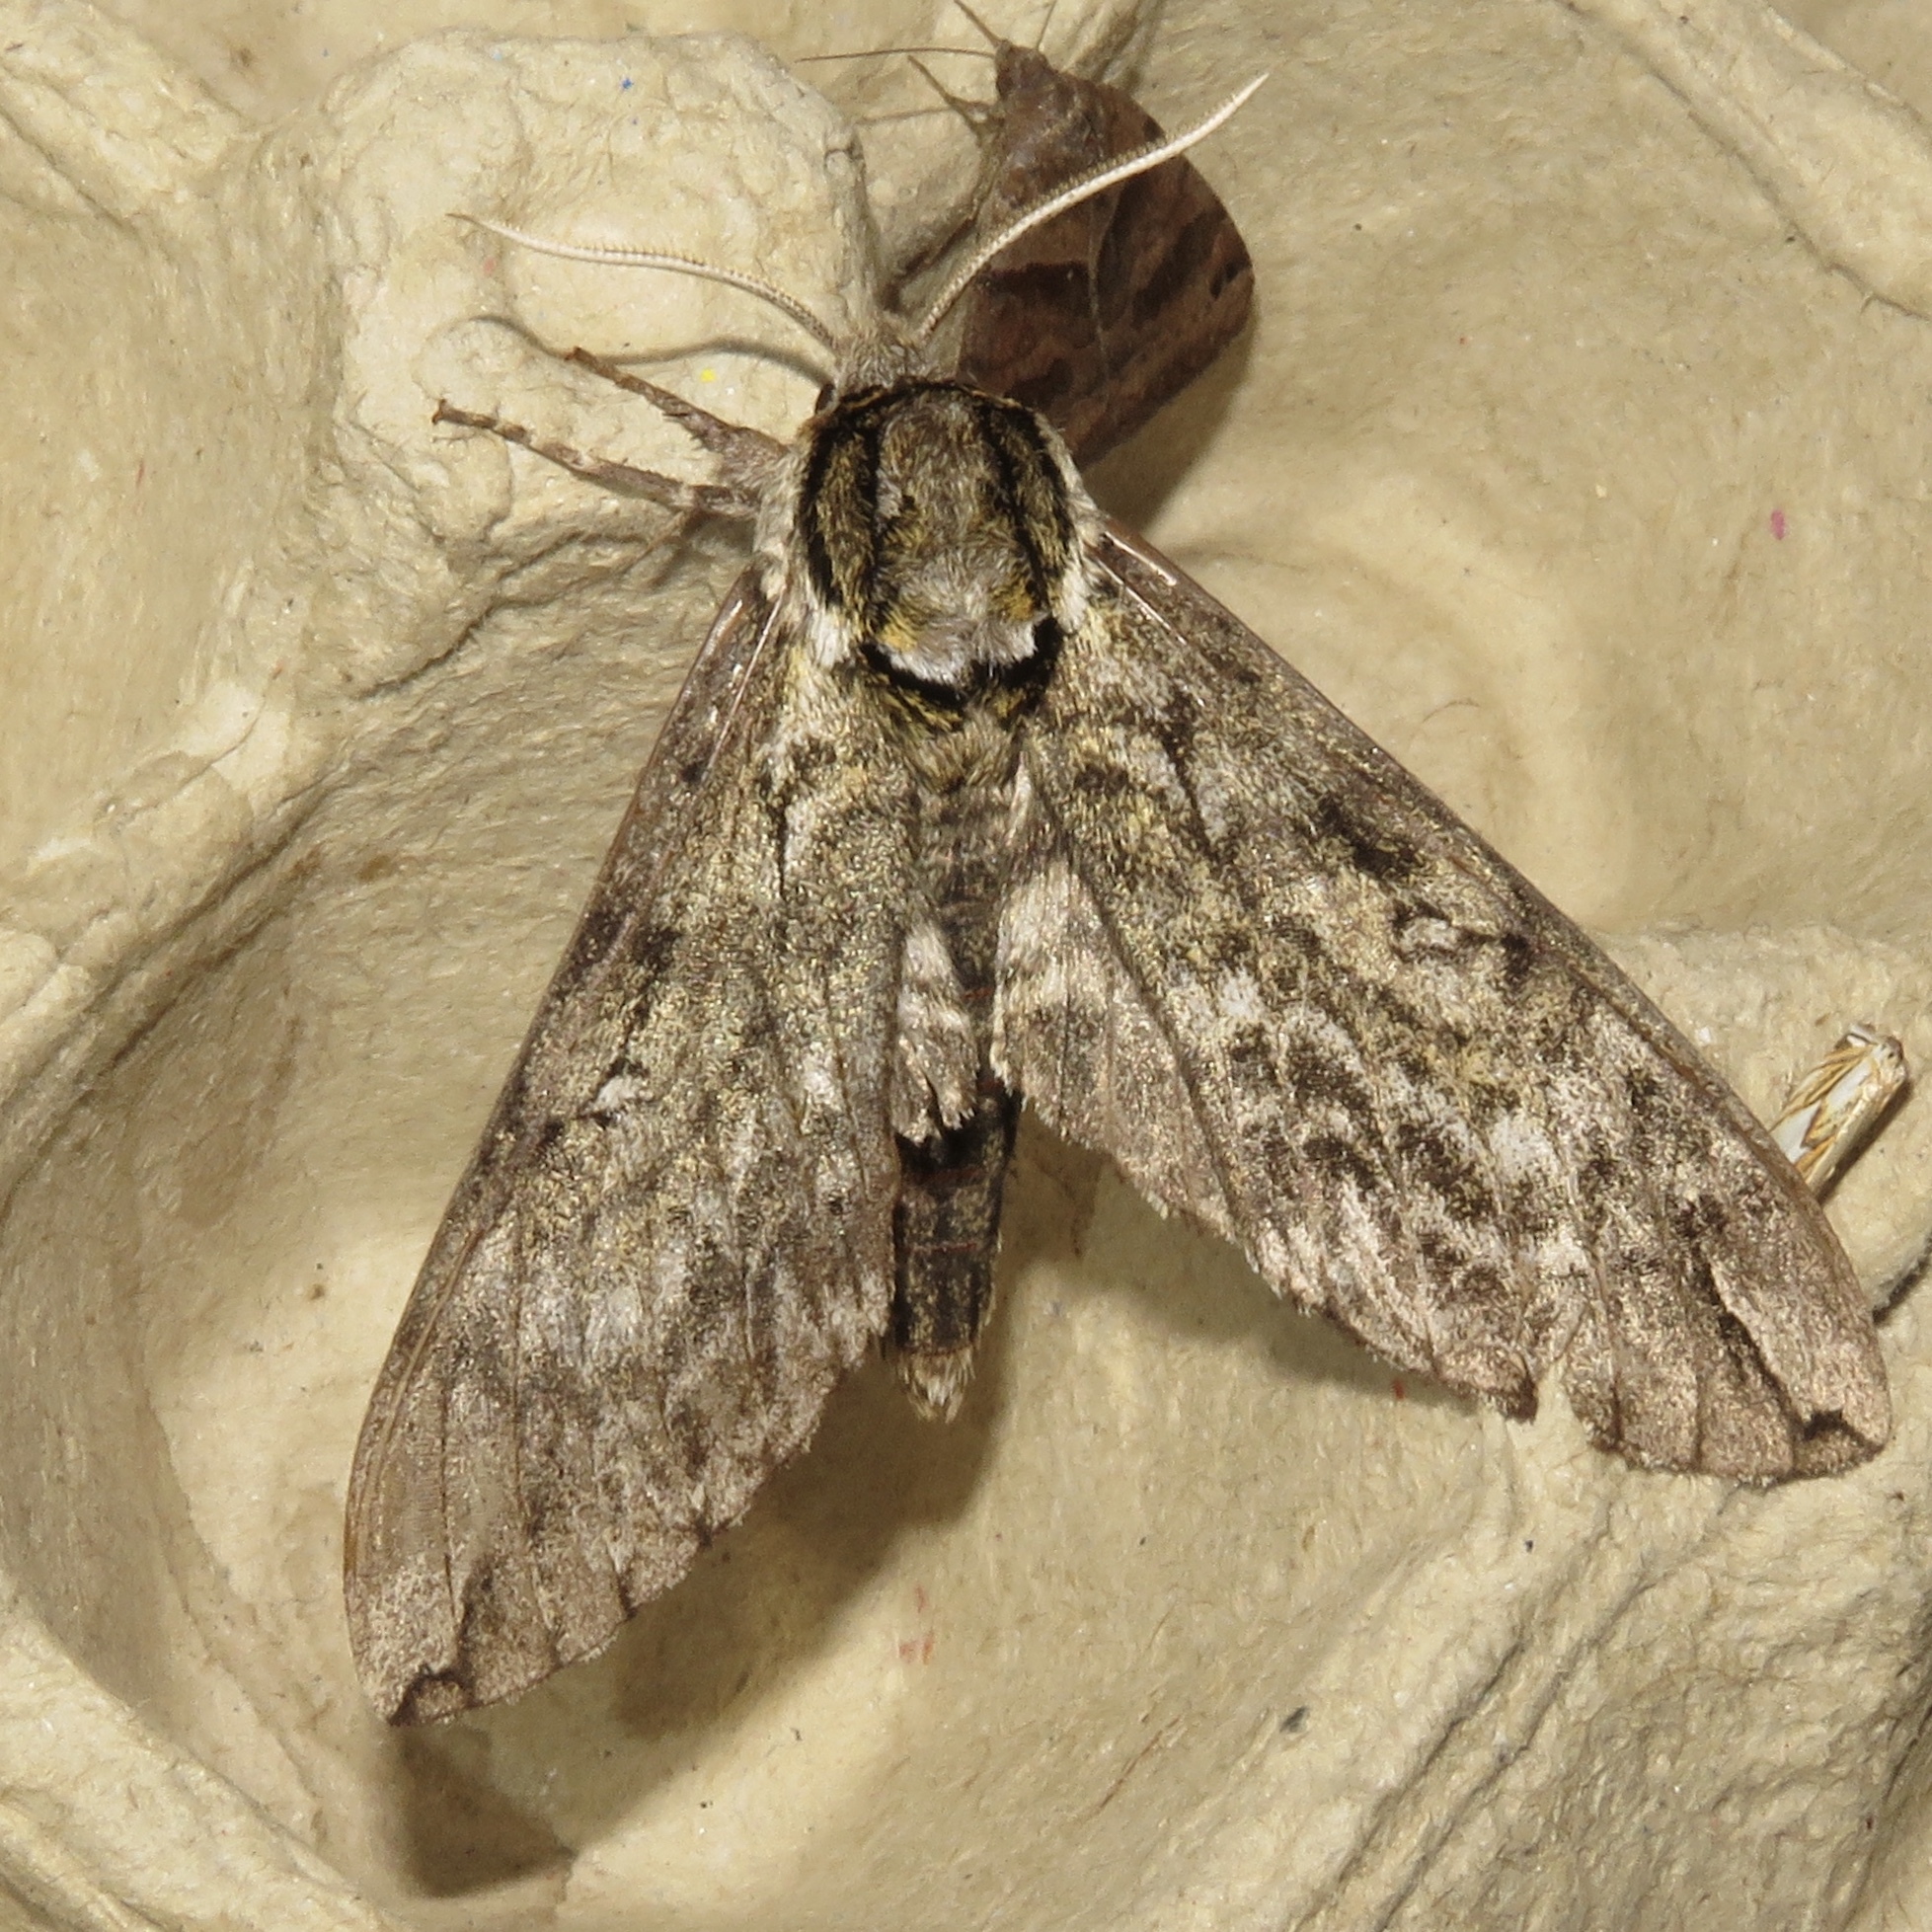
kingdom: Animalia
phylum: Arthropoda
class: Insecta
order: Lepidoptera
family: Sphingidae
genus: Ceratomia
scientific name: Ceratomia undulosa
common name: Waved sphinx
